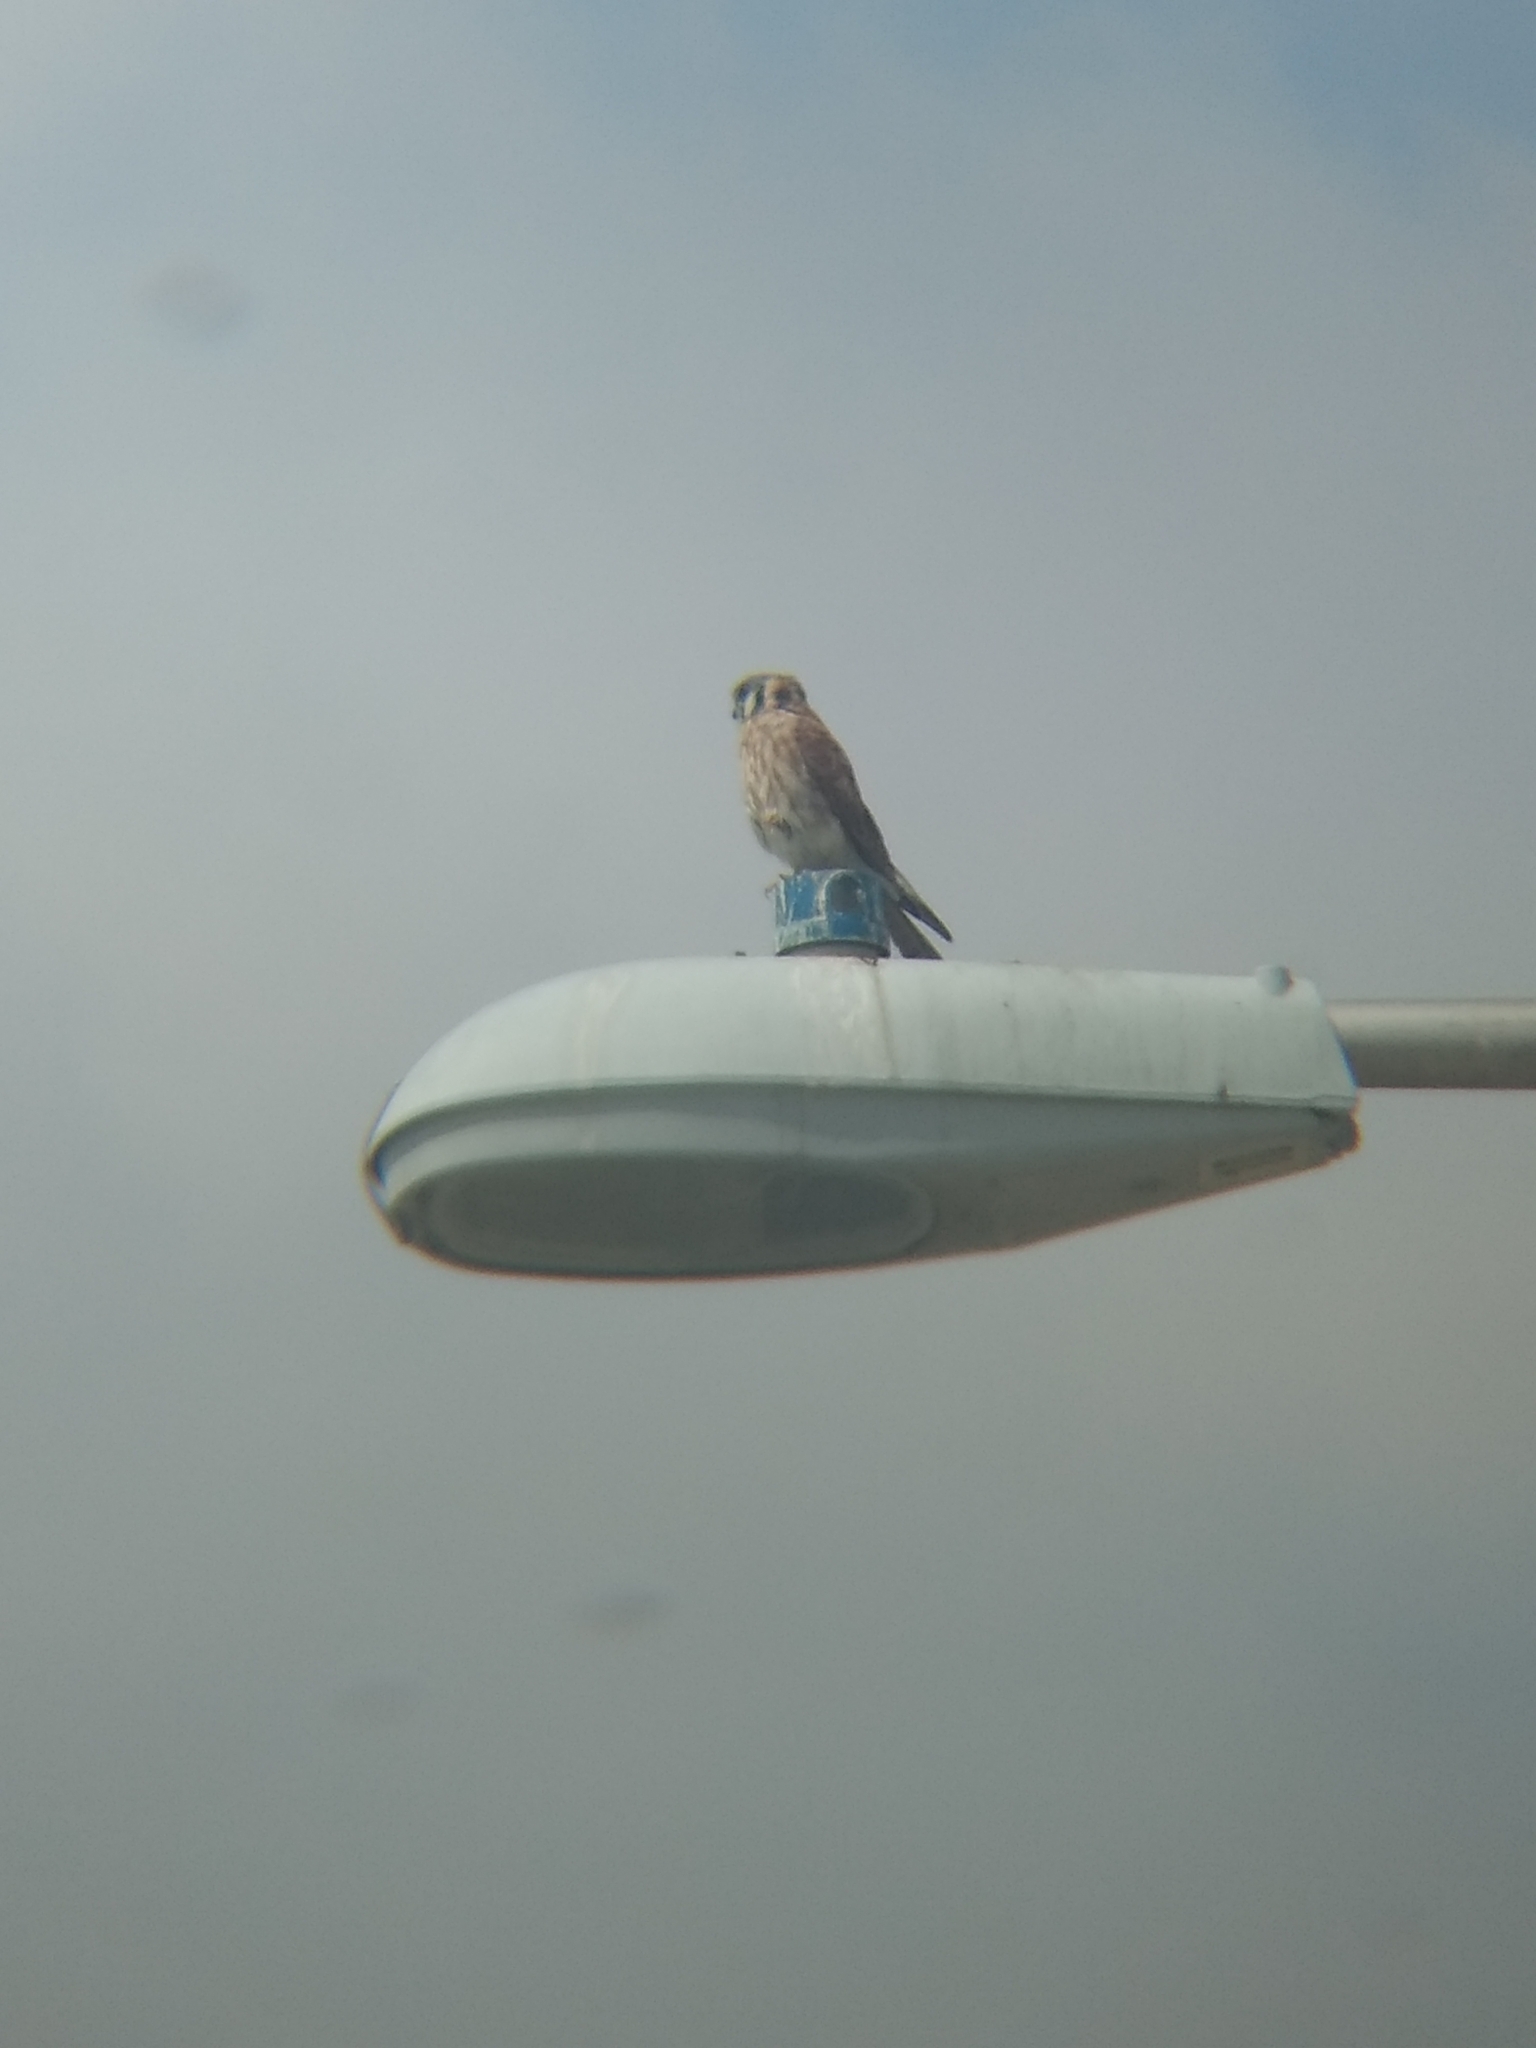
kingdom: Animalia
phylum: Chordata
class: Aves
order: Falconiformes
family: Falconidae
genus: Falco
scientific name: Falco sparverius
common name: American kestrel
